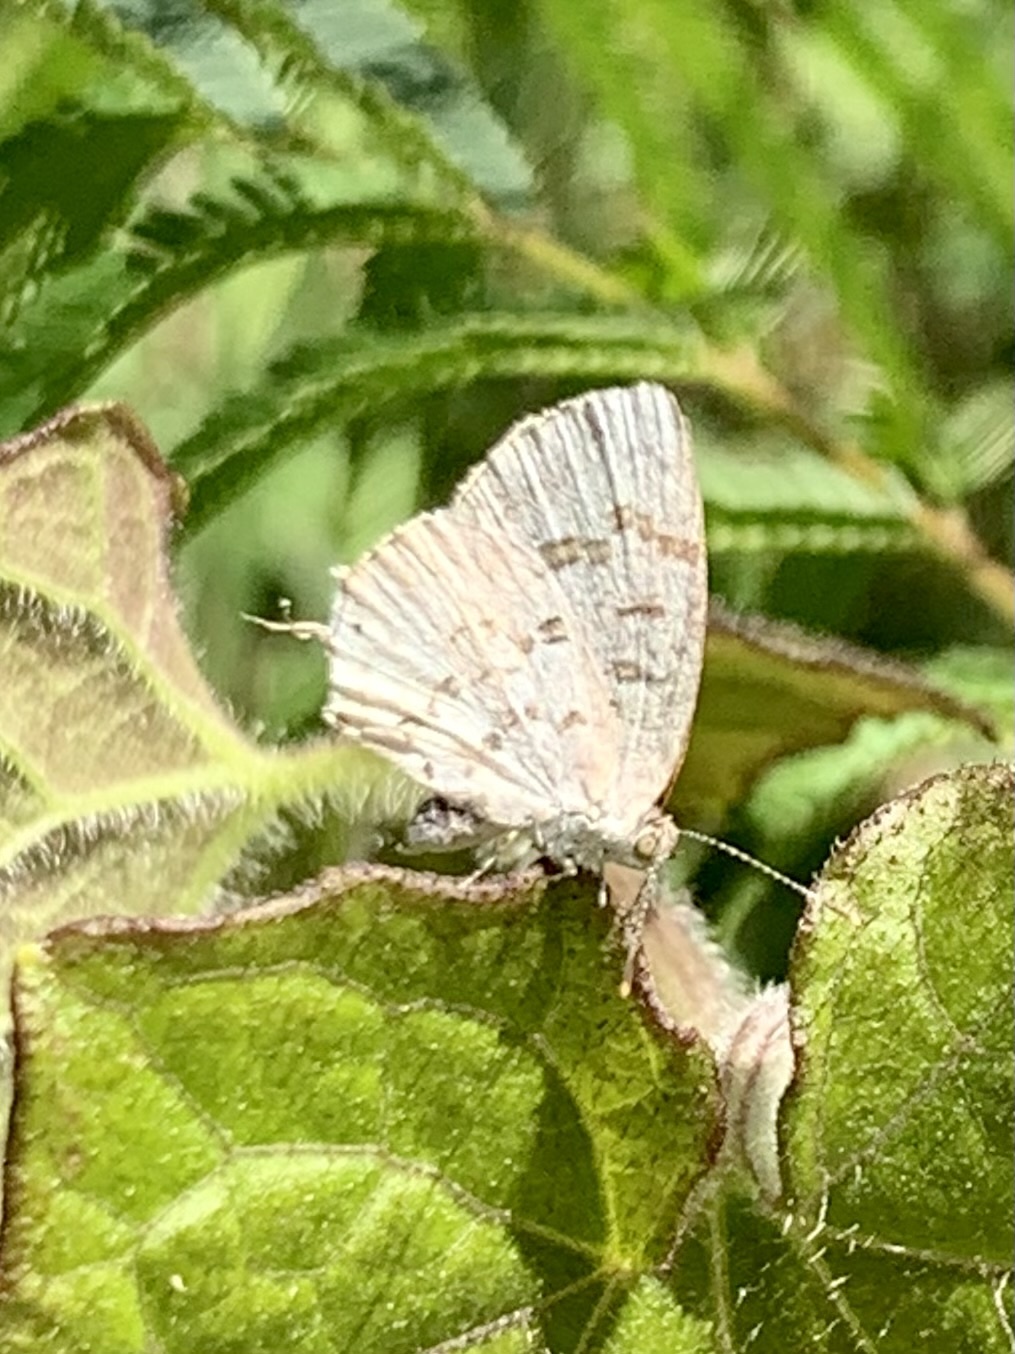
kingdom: Animalia
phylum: Arthropoda
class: Insecta
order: Lepidoptera
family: Lycaenidae
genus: Thecla
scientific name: Thecla una
